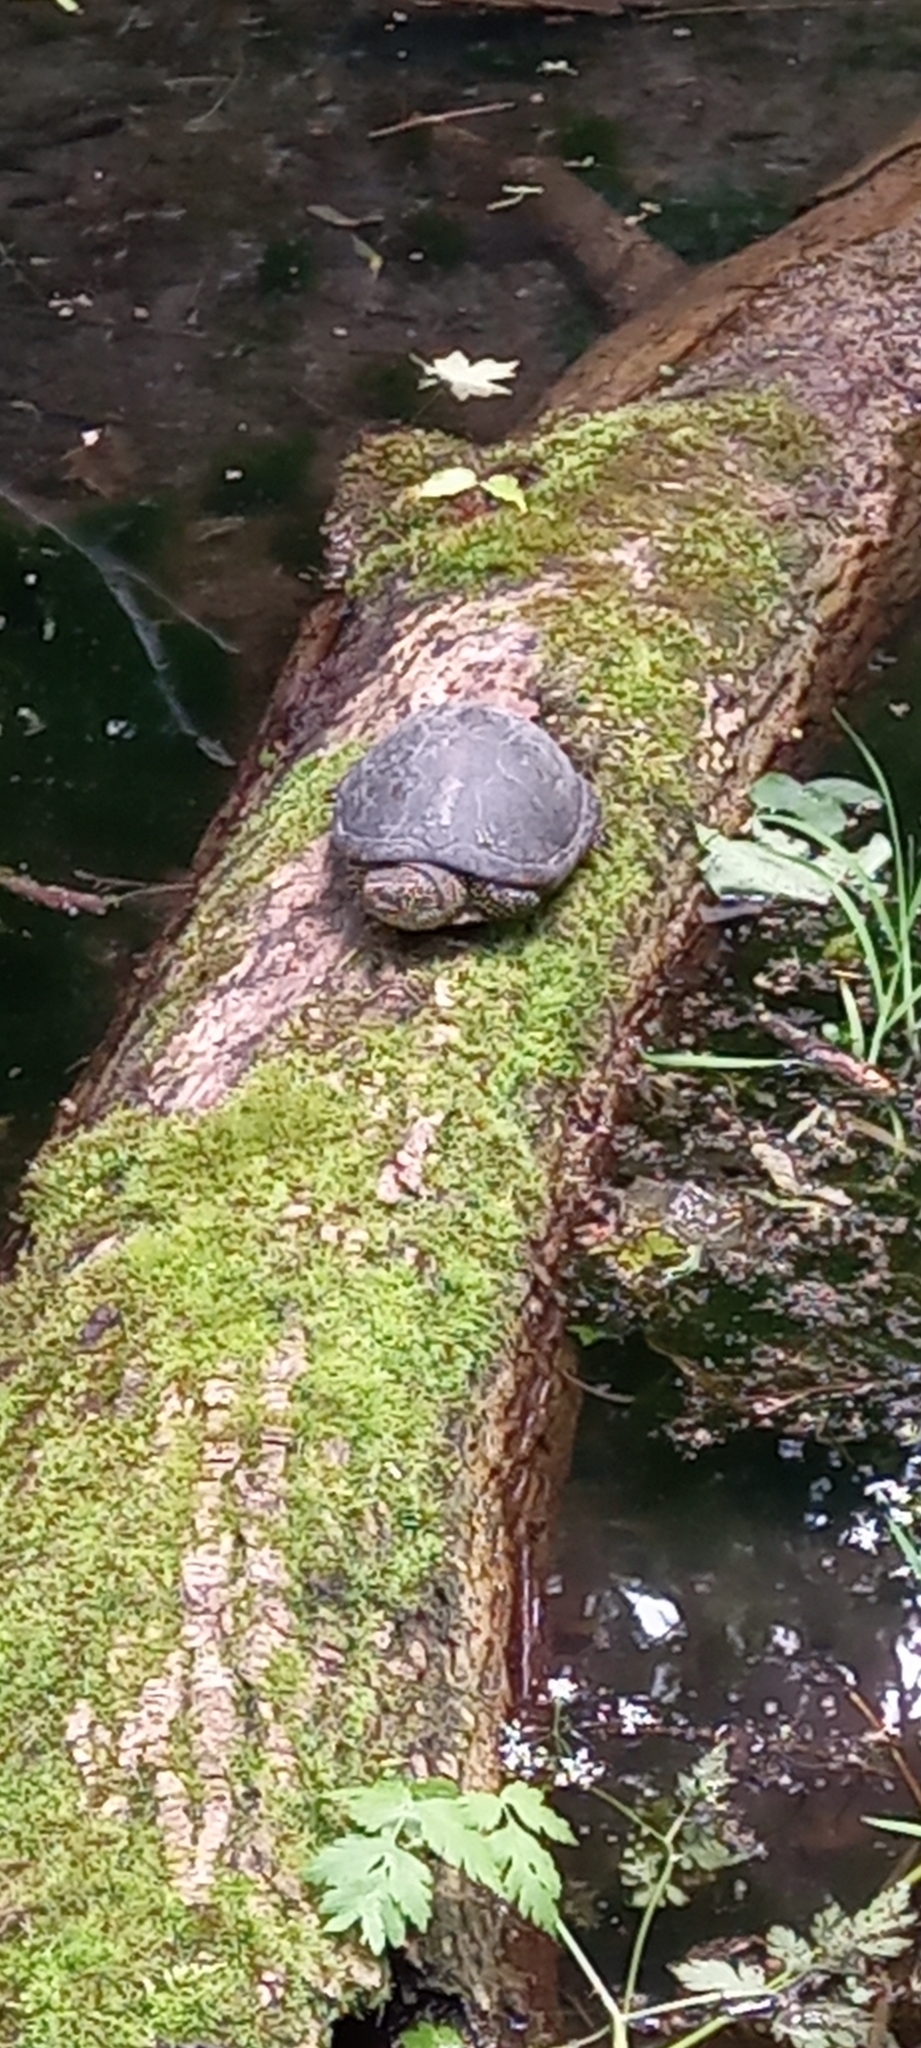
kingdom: Animalia
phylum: Chordata
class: Testudines
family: Emydidae
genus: Emys
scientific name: Emys orbicularis
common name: European pond turtle
